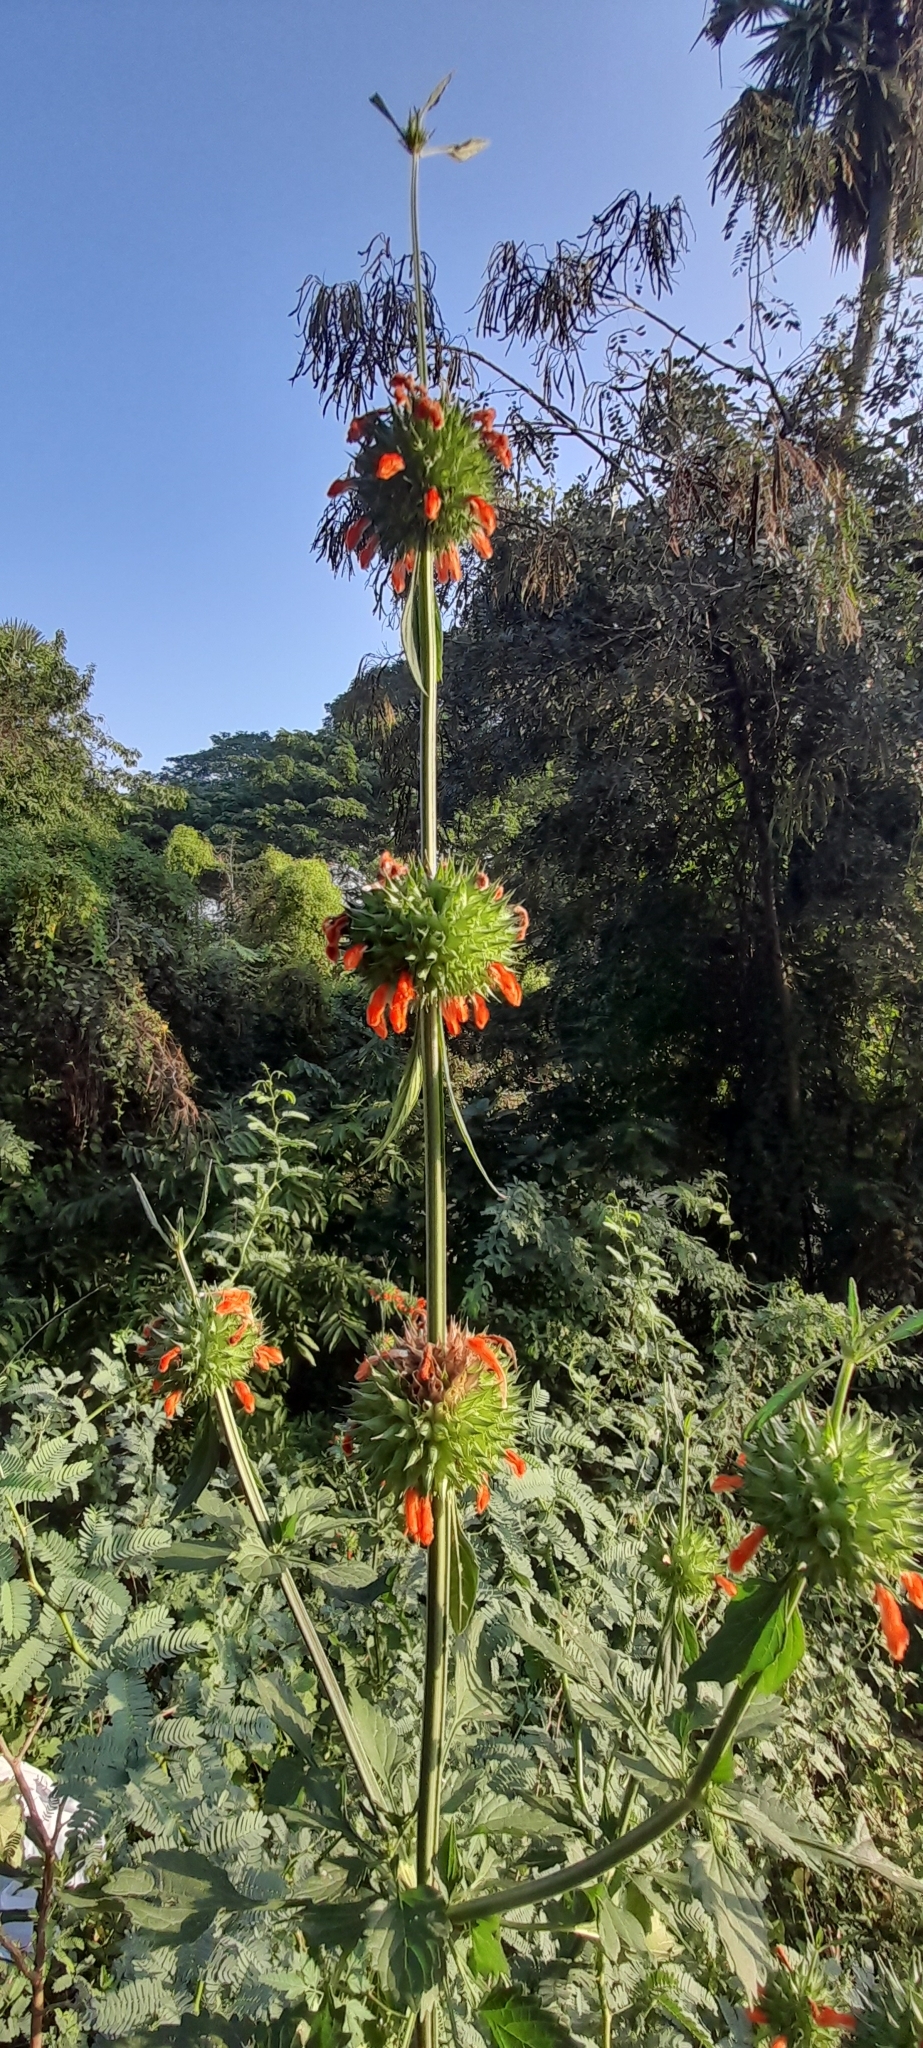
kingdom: Plantae
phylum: Tracheophyta
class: Magnoliopsida
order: Lamiales
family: Lamiaceae
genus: Leonotis
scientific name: Leonotis nepetifolia
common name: Christmas candlestick
